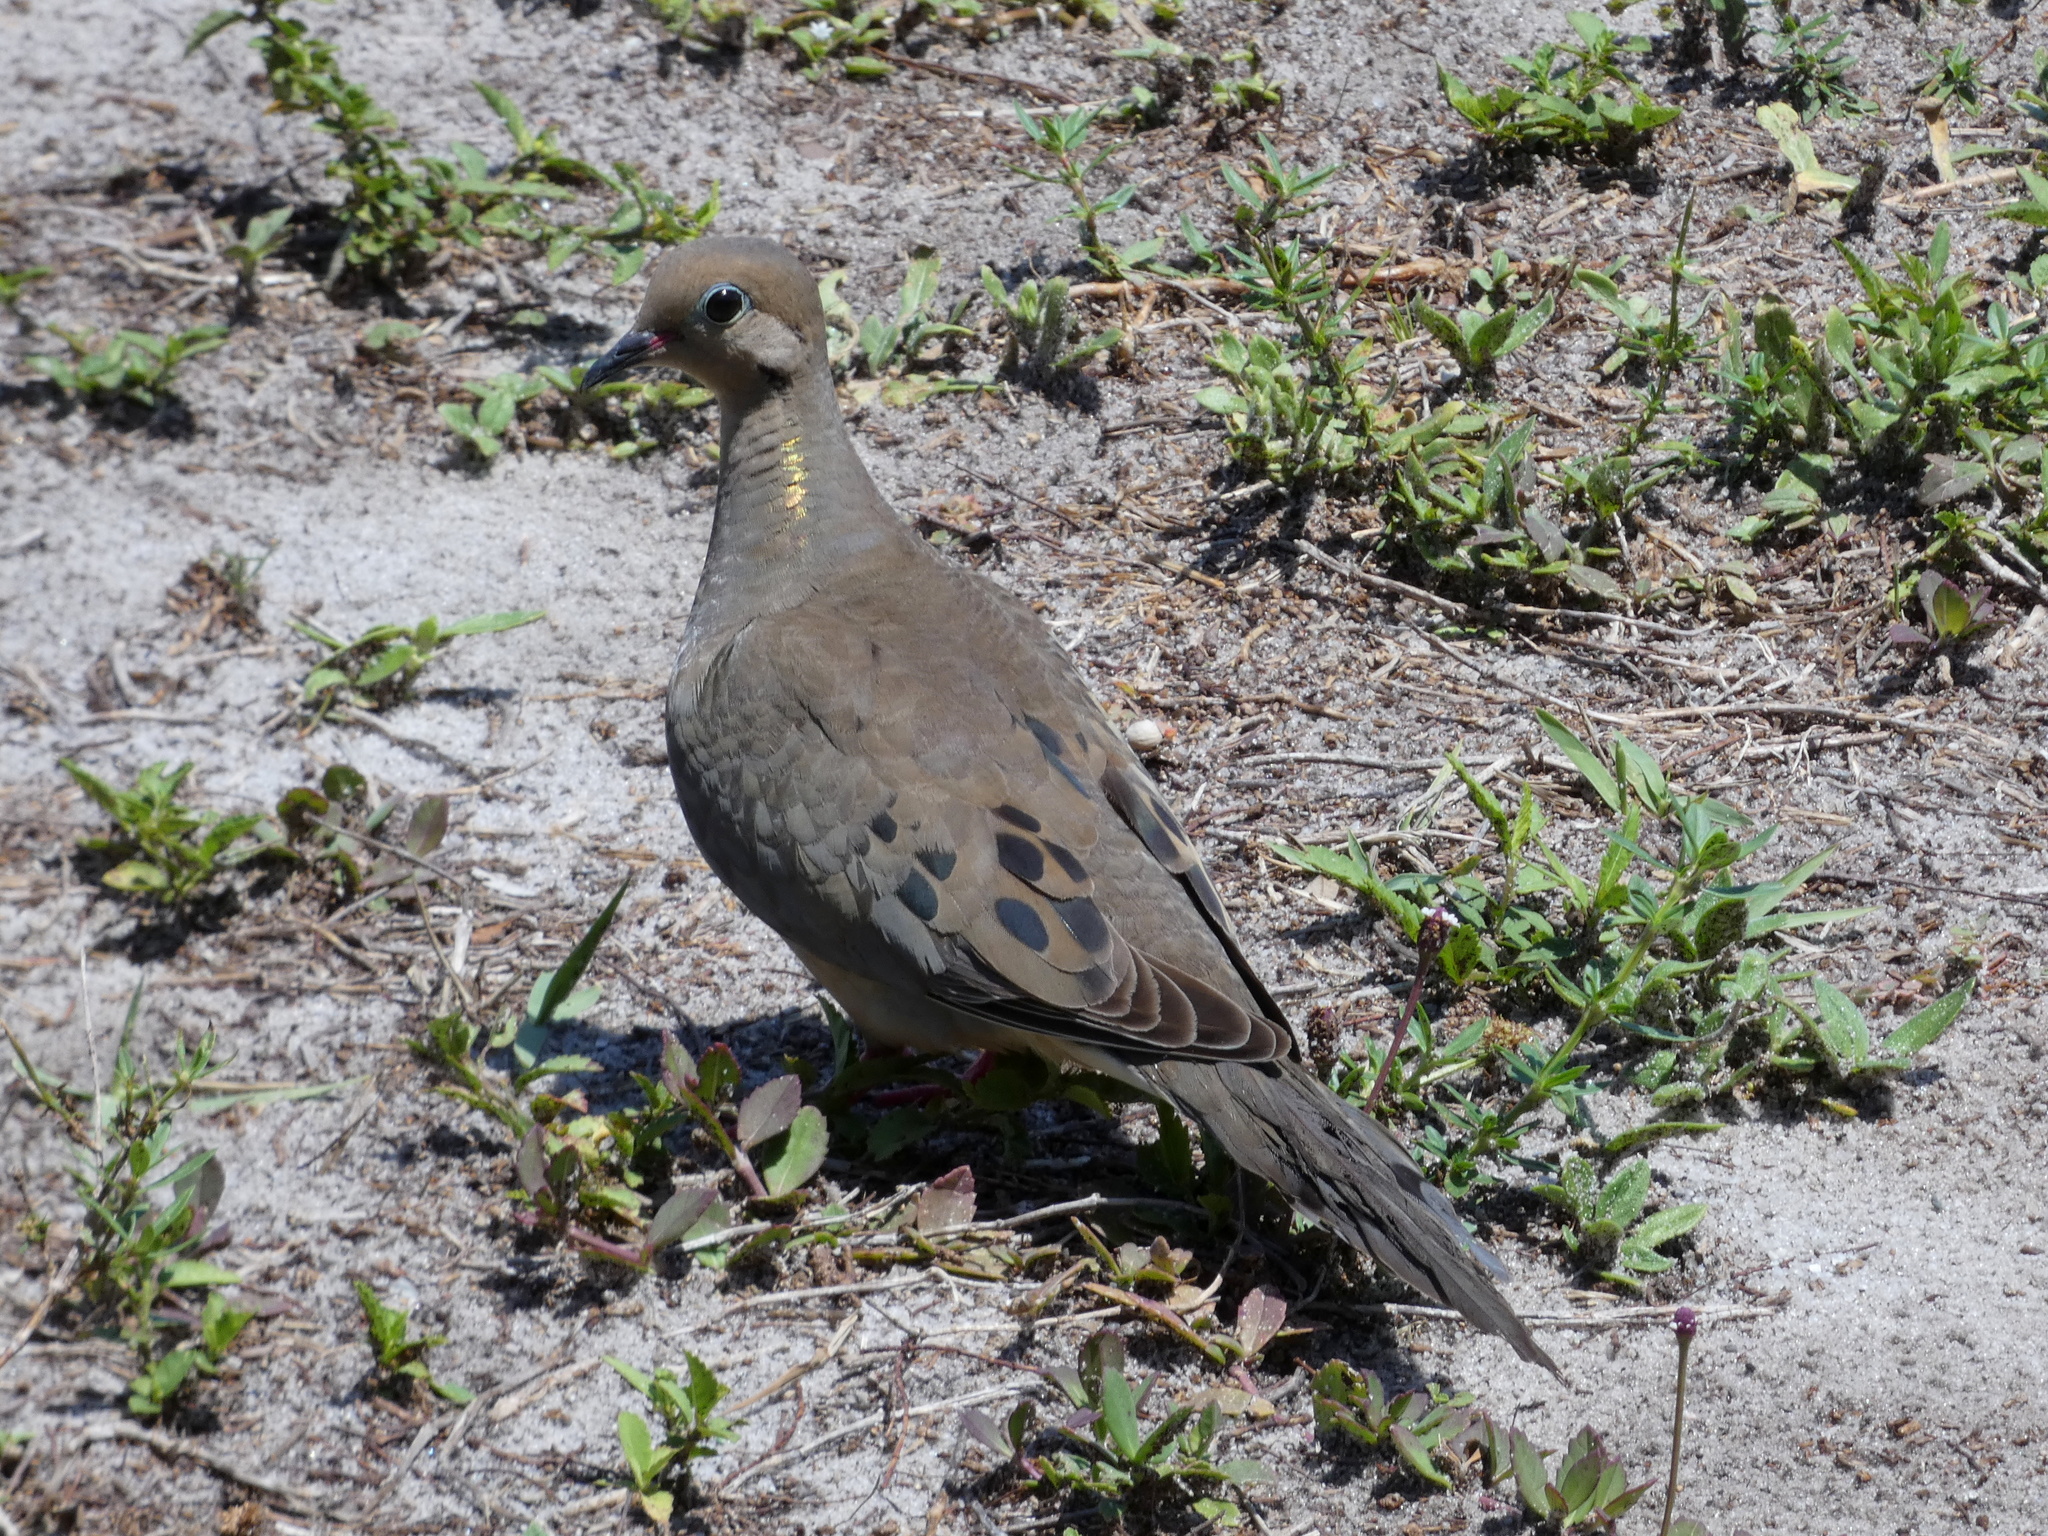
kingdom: Animalia
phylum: Chordata
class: Aves
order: Columbiformes
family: Columbidae
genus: Zenaida
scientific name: Zenaida macroura
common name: Mourning dove
